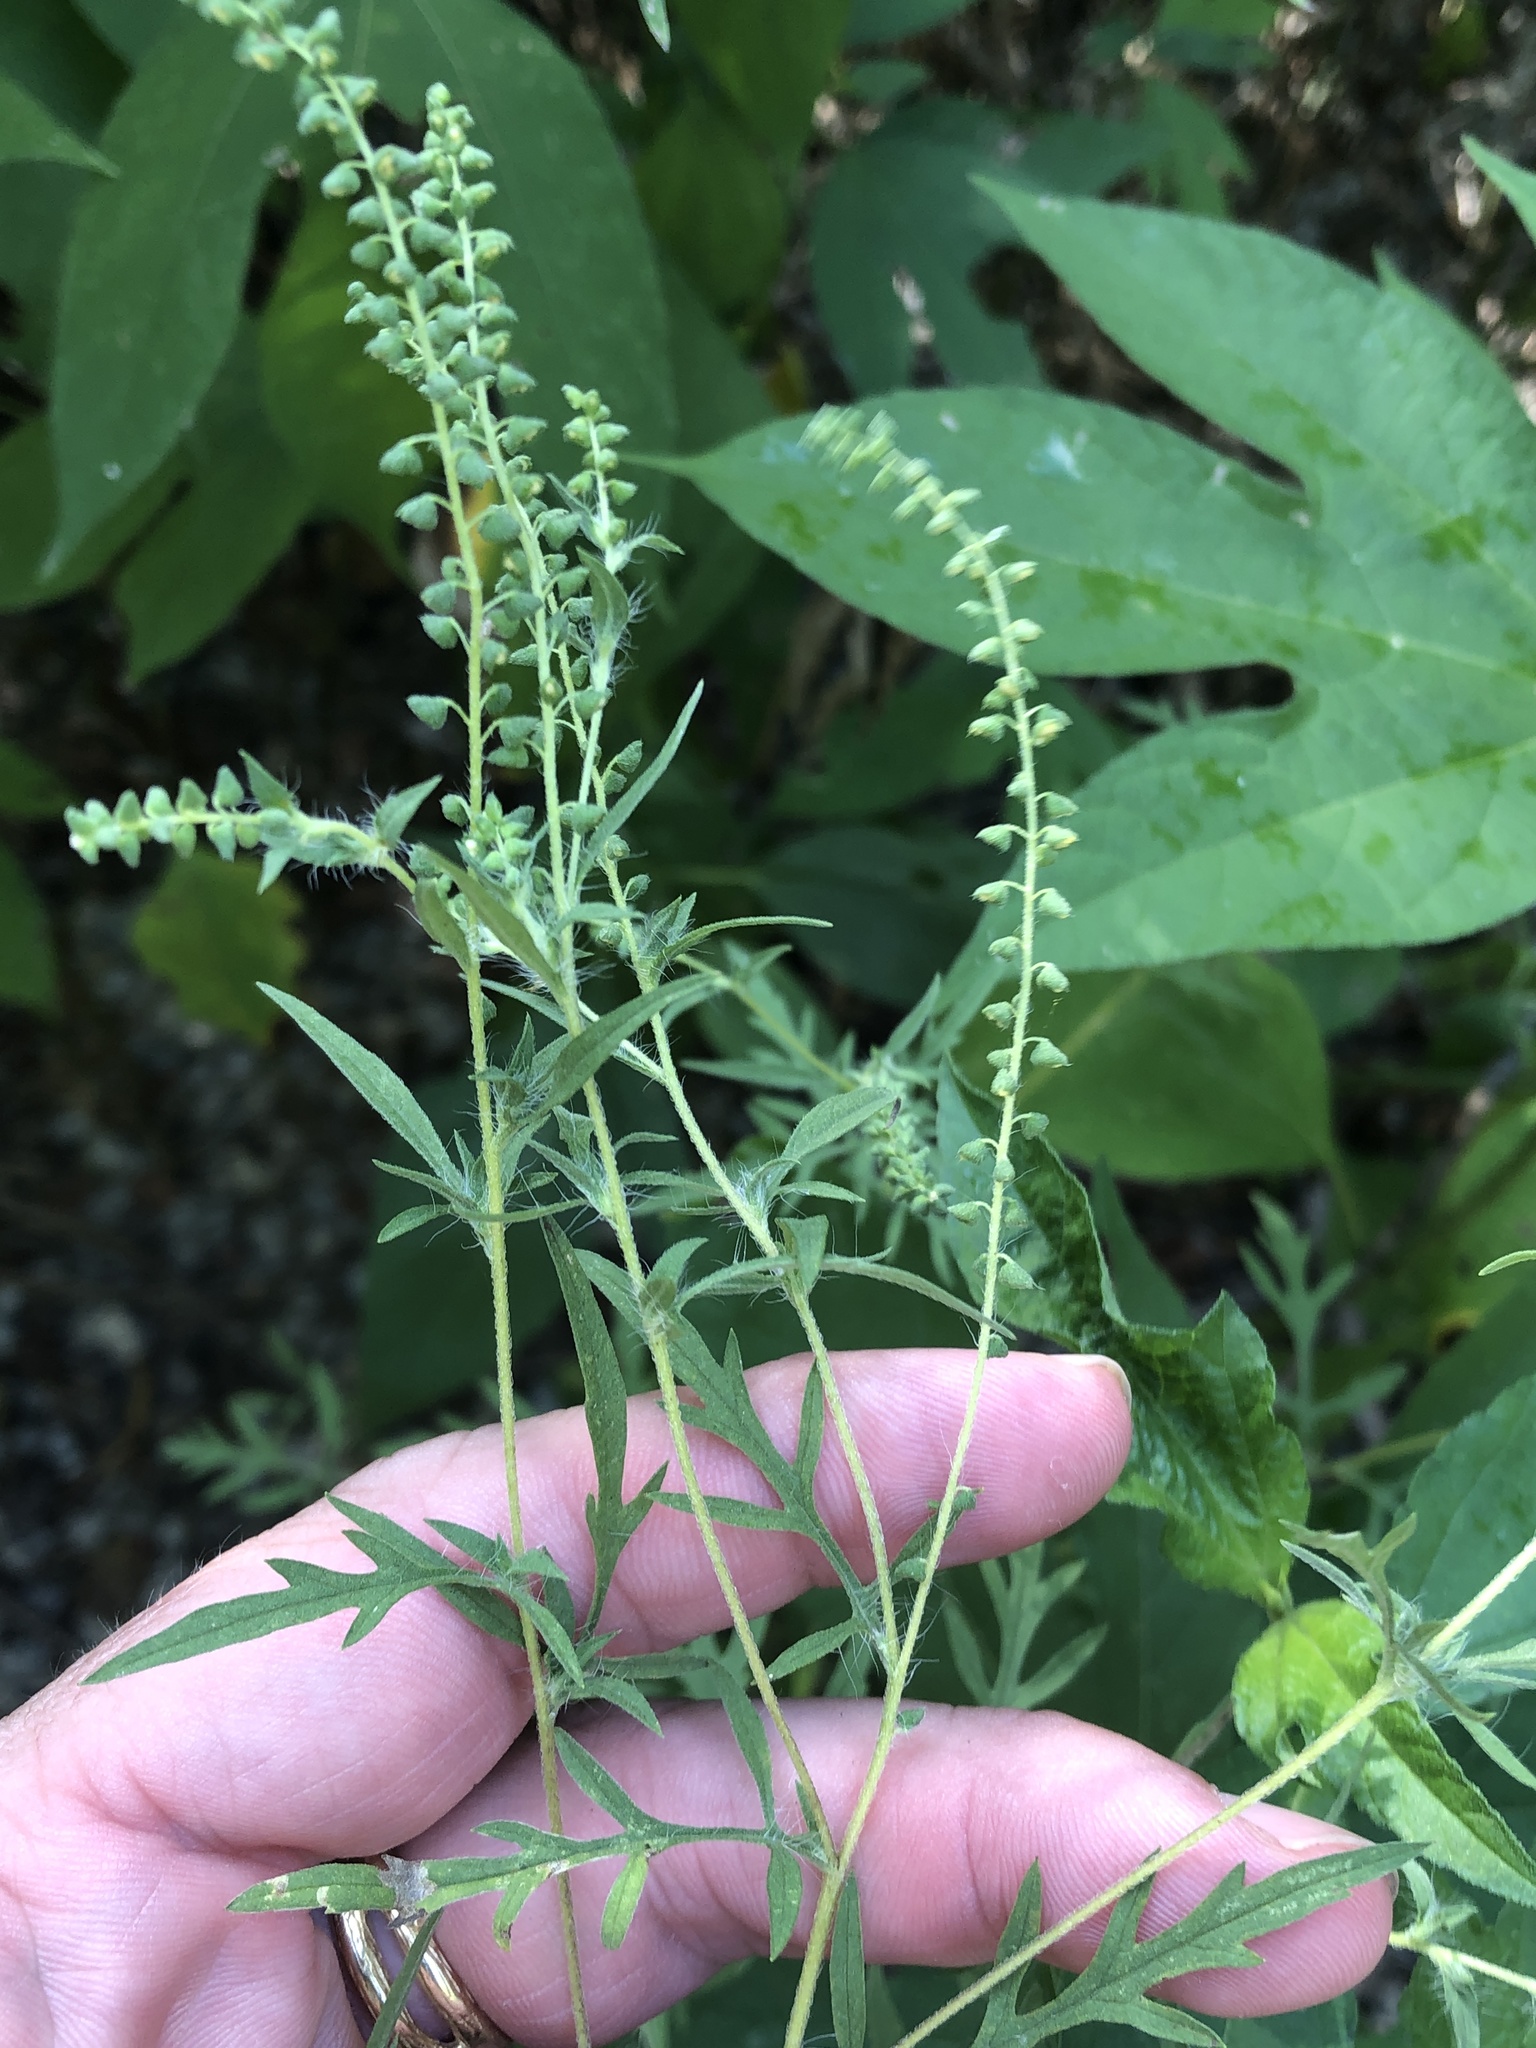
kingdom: Plantae
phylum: Tracheophyta
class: Magnoliopsida
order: Asterales
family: Asteraceae
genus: Ambrosia
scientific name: Ambrosia artemisiifolia
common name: Annual ragweed
